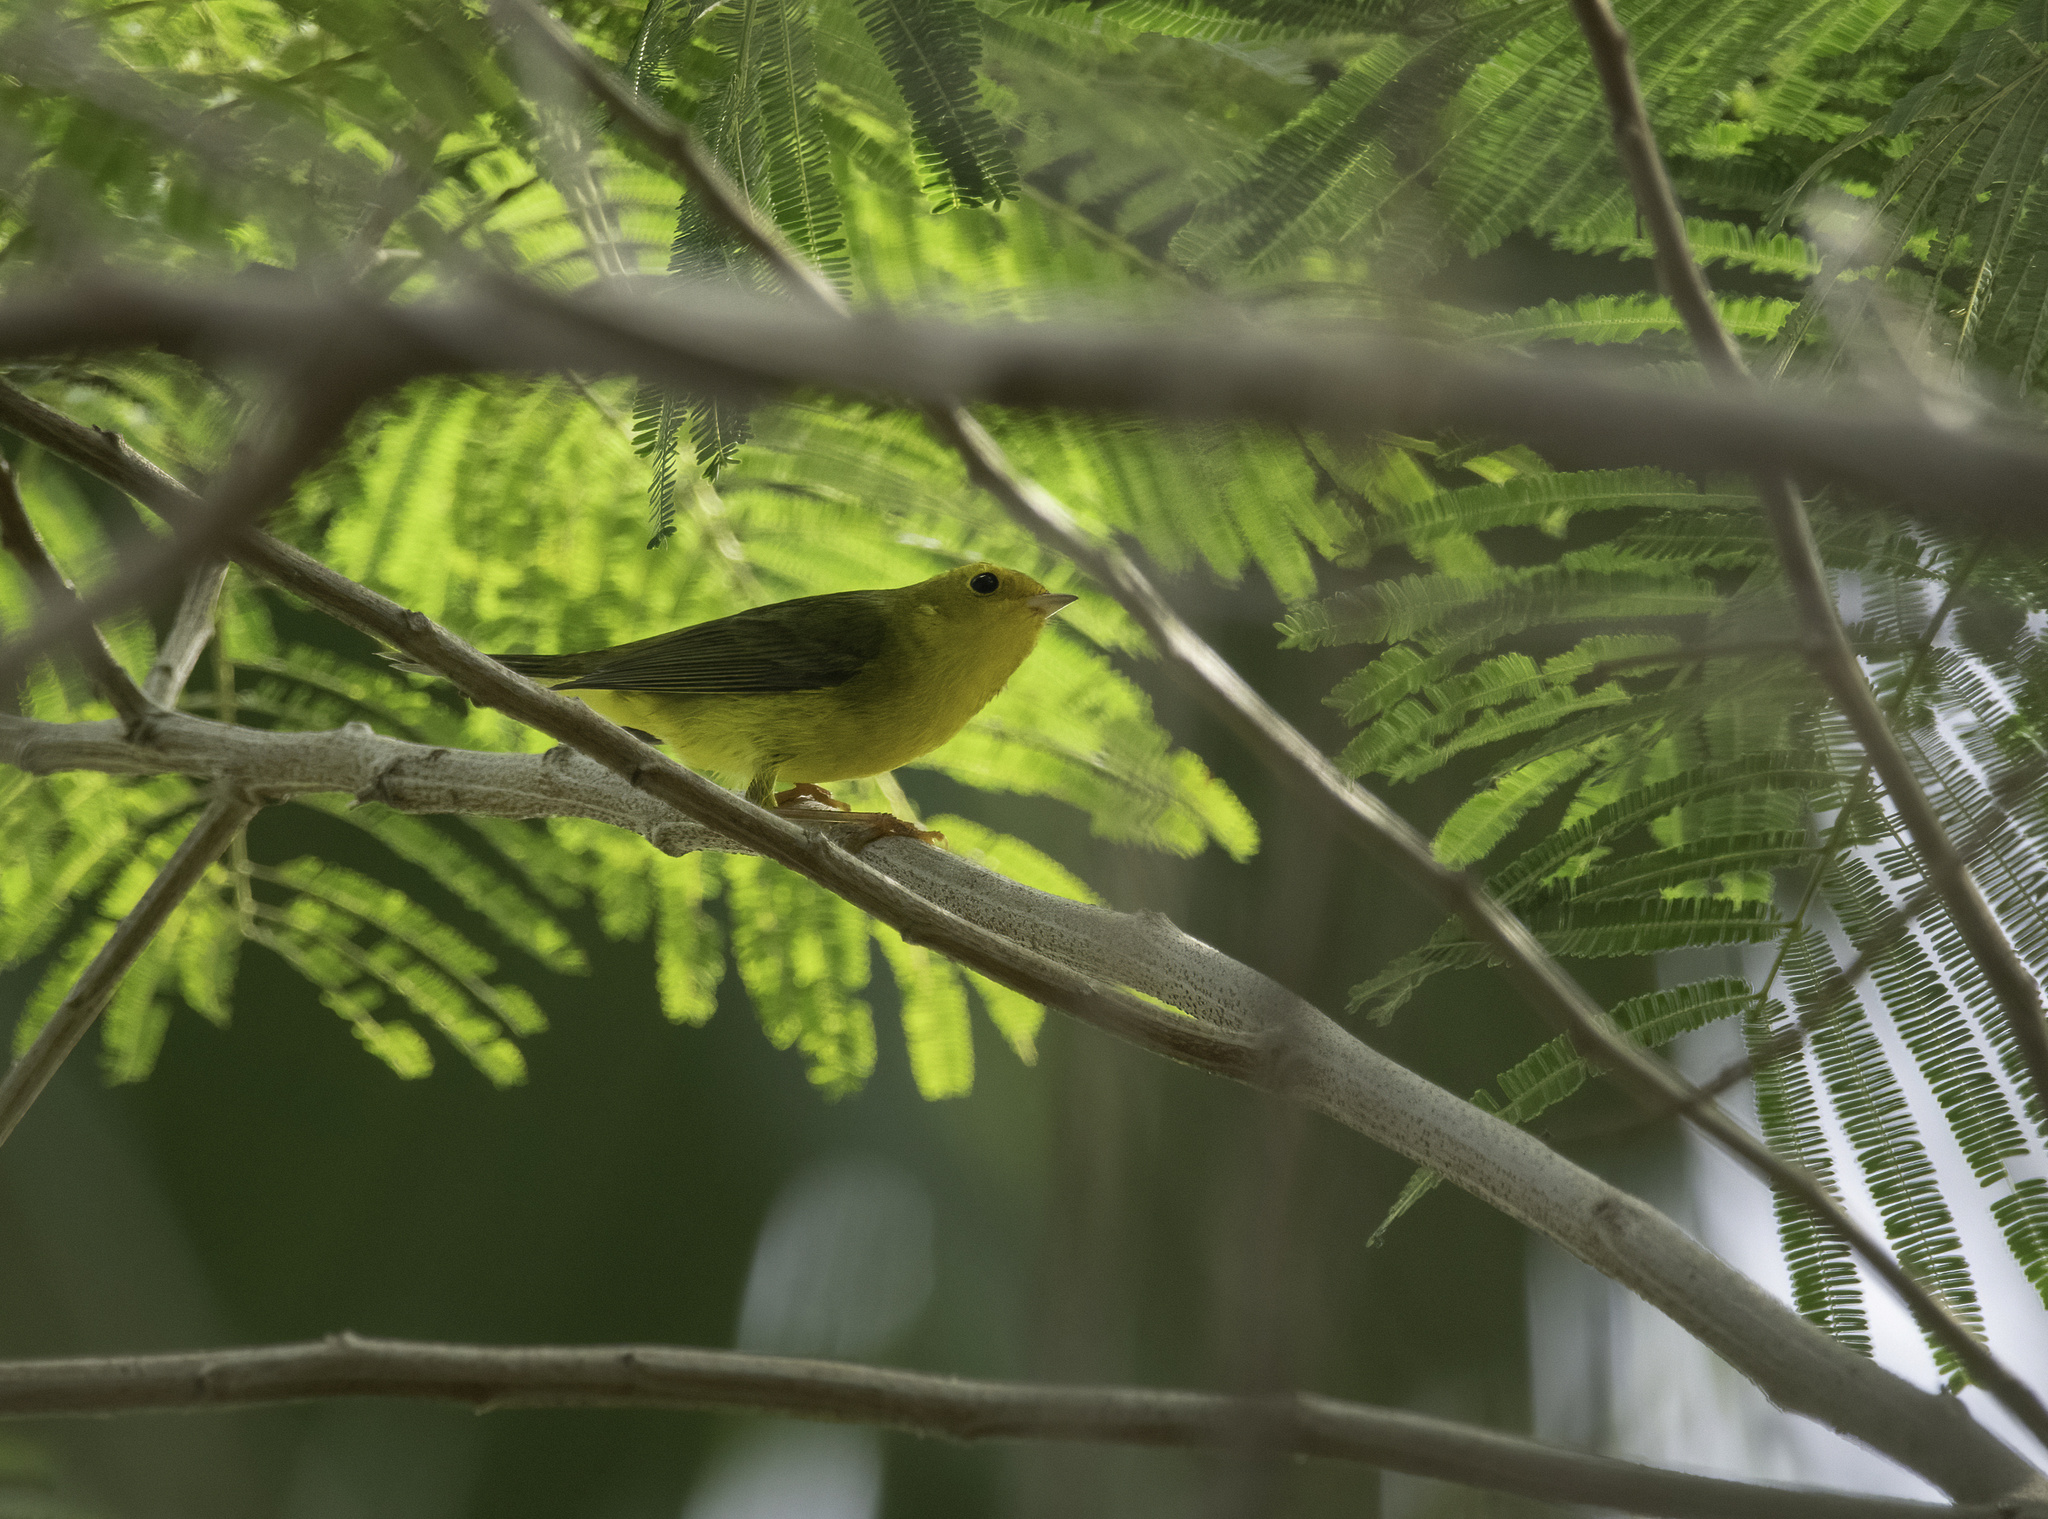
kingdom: Animalia
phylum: Chordata
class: Aves
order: Passeriformes
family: Parulidae
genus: Cardellina
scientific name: Cardellina pusilla
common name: Wilson's warbler
